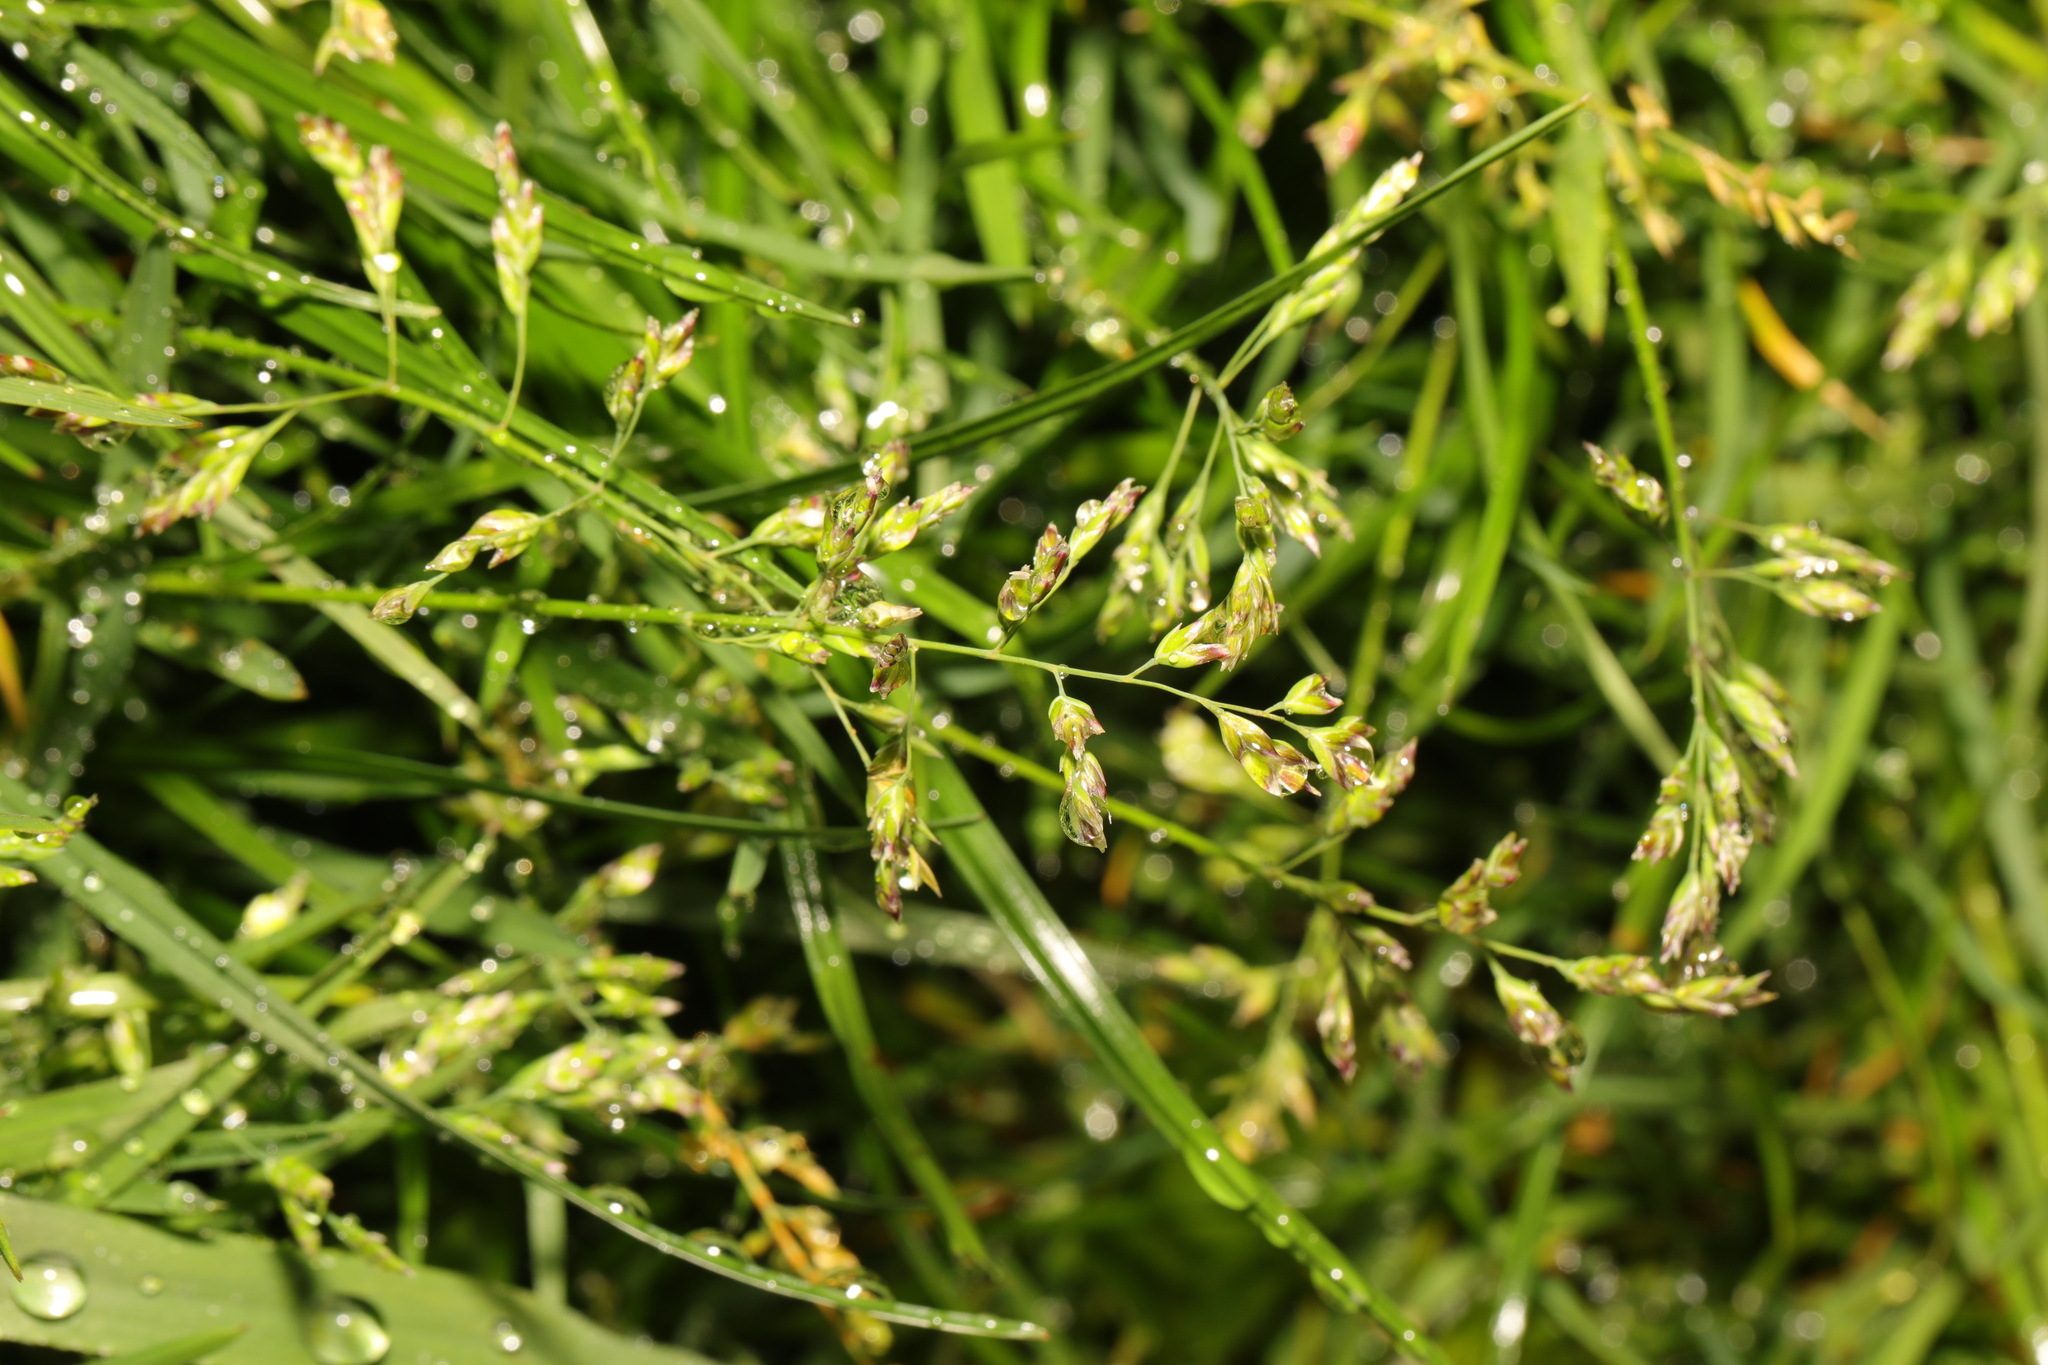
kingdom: Plantae
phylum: Tracheophyta
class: Liliopsida
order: Poales
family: Poaceae
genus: Poa
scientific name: Poa annua
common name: Annual bluegrass
